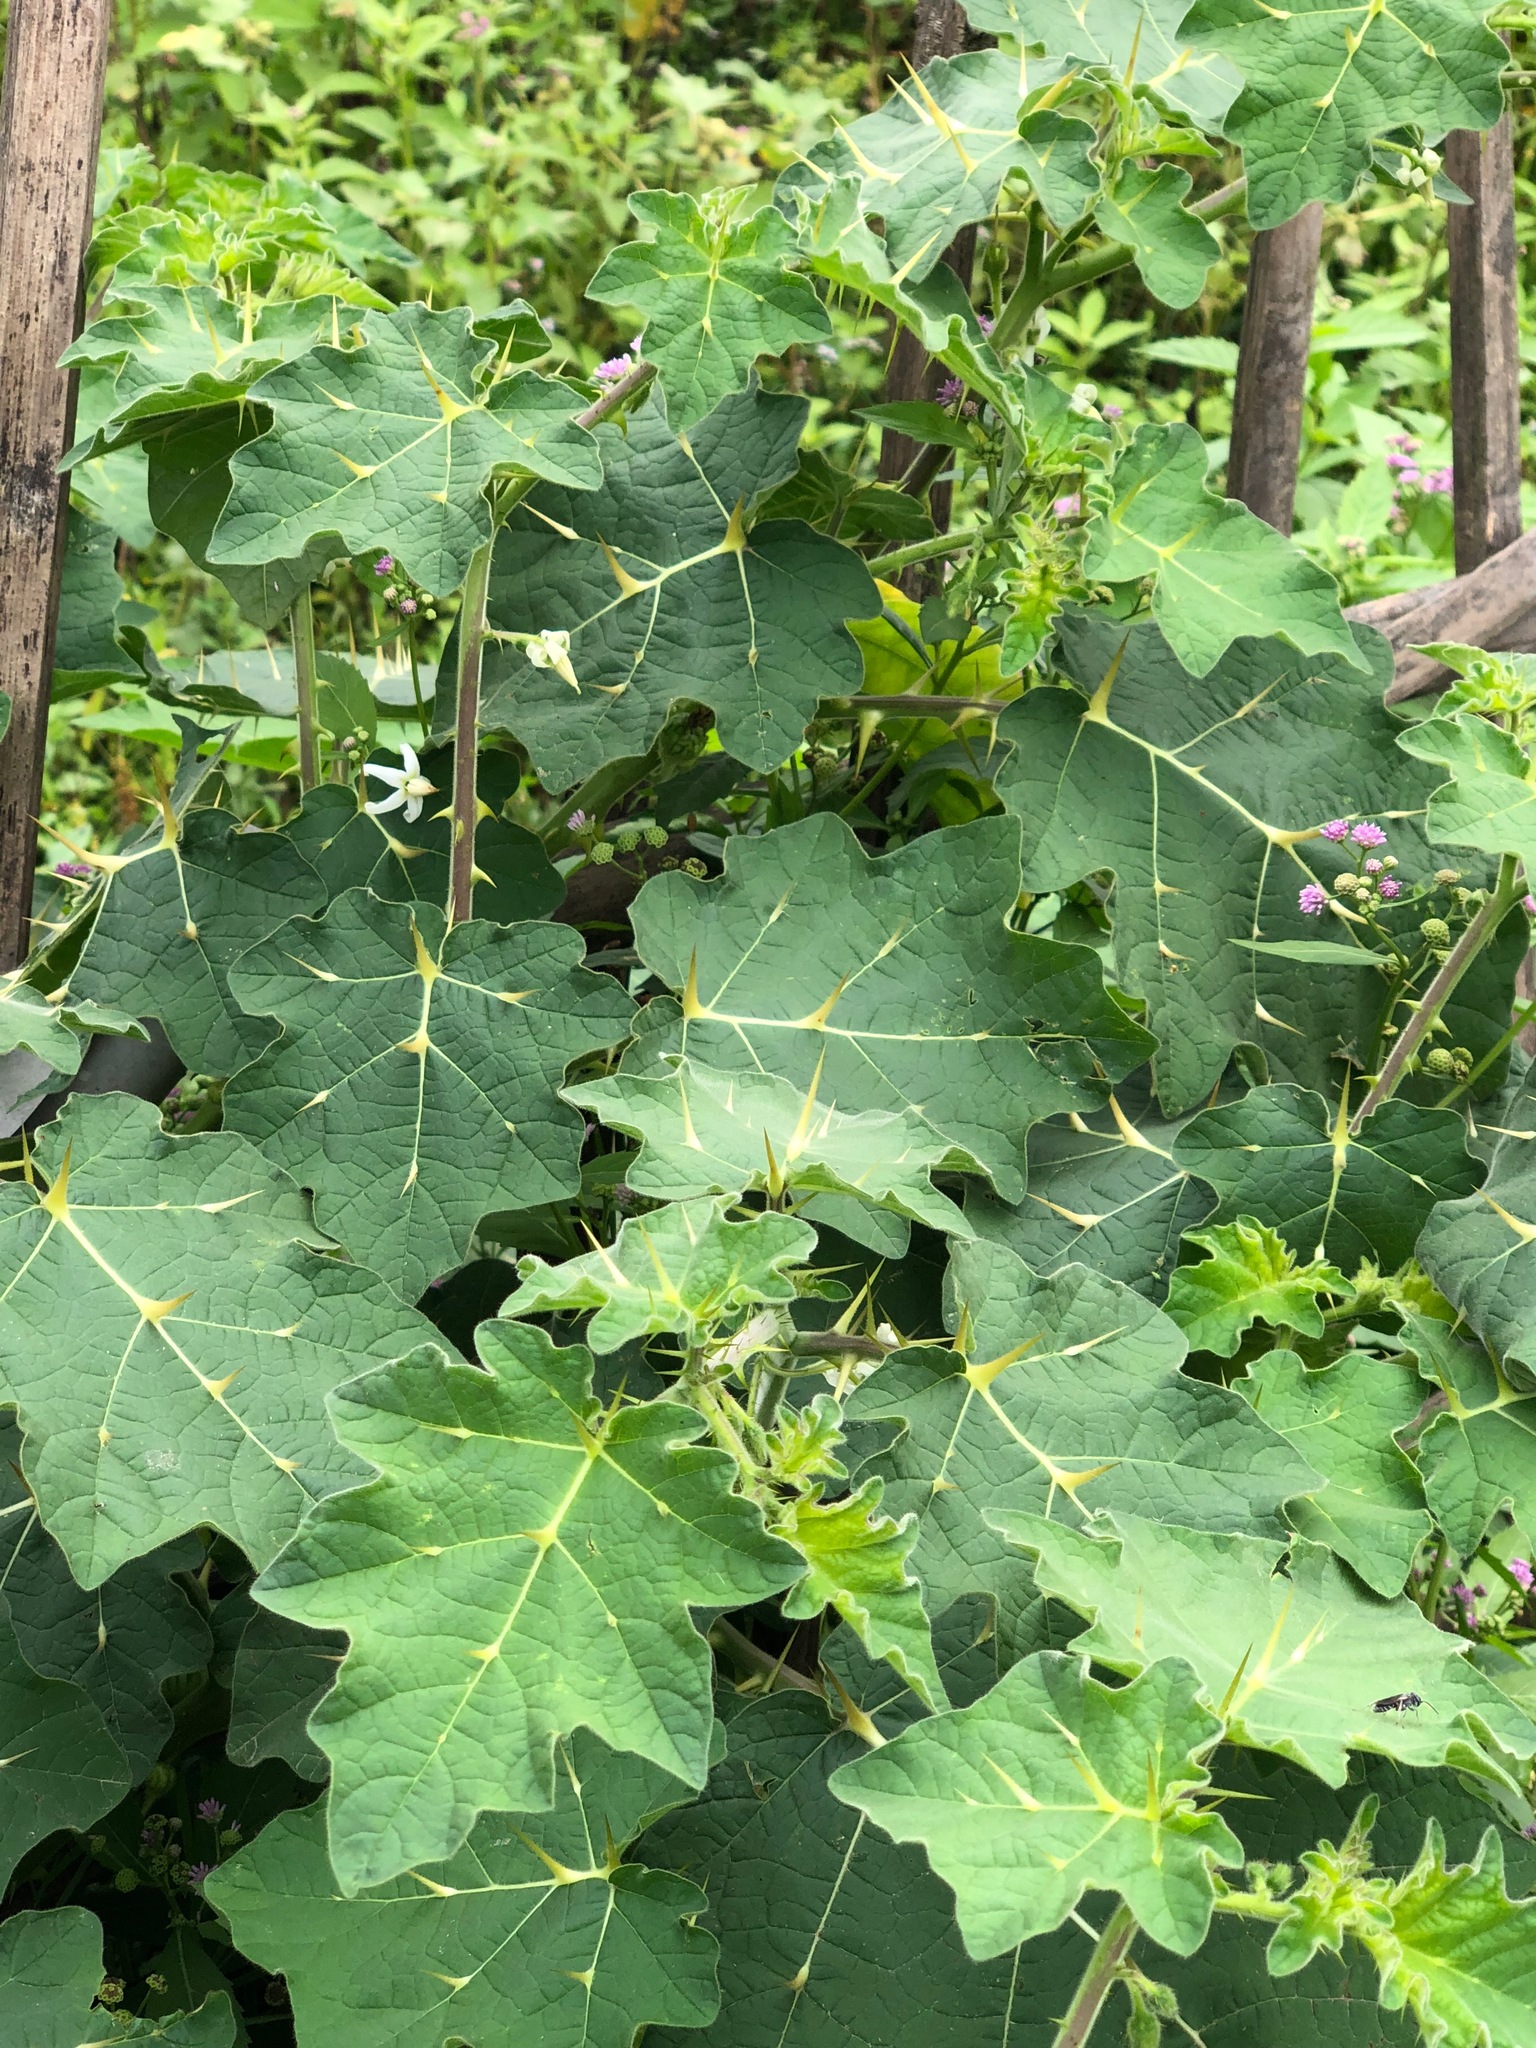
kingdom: Plantae
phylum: Tracheophyta
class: Magnoliopsida
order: Solanales
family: Solanaceae
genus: Solanum
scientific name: Solanum viarum
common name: Tropical soda apple
